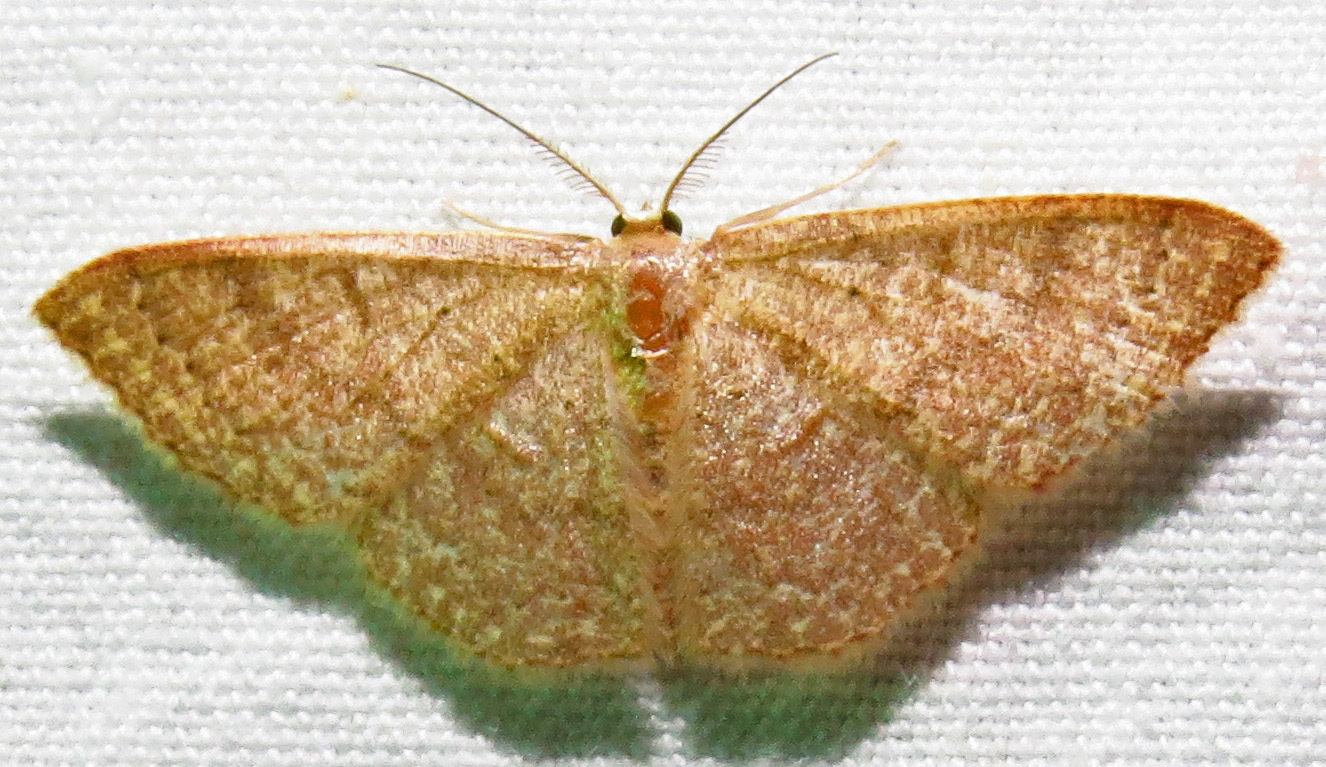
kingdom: Animalia
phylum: Arthropoda
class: Insecta
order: Lepidoptera
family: Geometridae
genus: Pleuroprucha
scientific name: Pleuroprucha insulsaria
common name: Common tan wave
